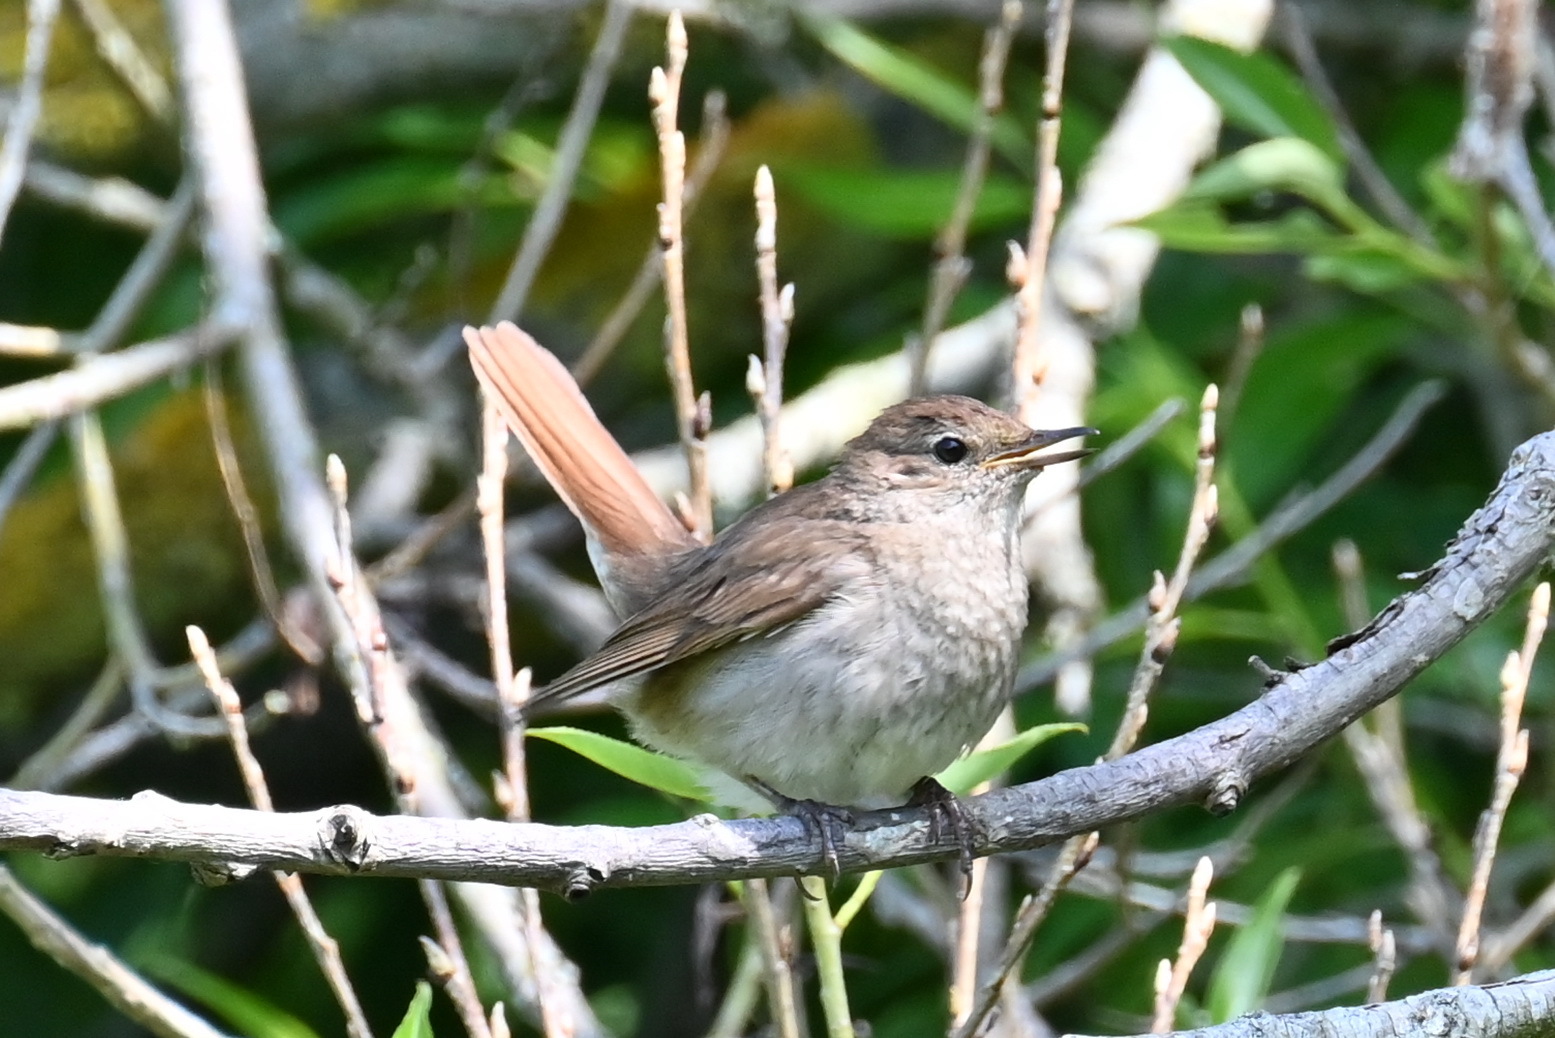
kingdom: Animalia
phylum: Chordata
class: Aves
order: Passeriformes
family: Muscicapidae
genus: Luscinia
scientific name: Luscinia luscinia
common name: Thrush nightingale
